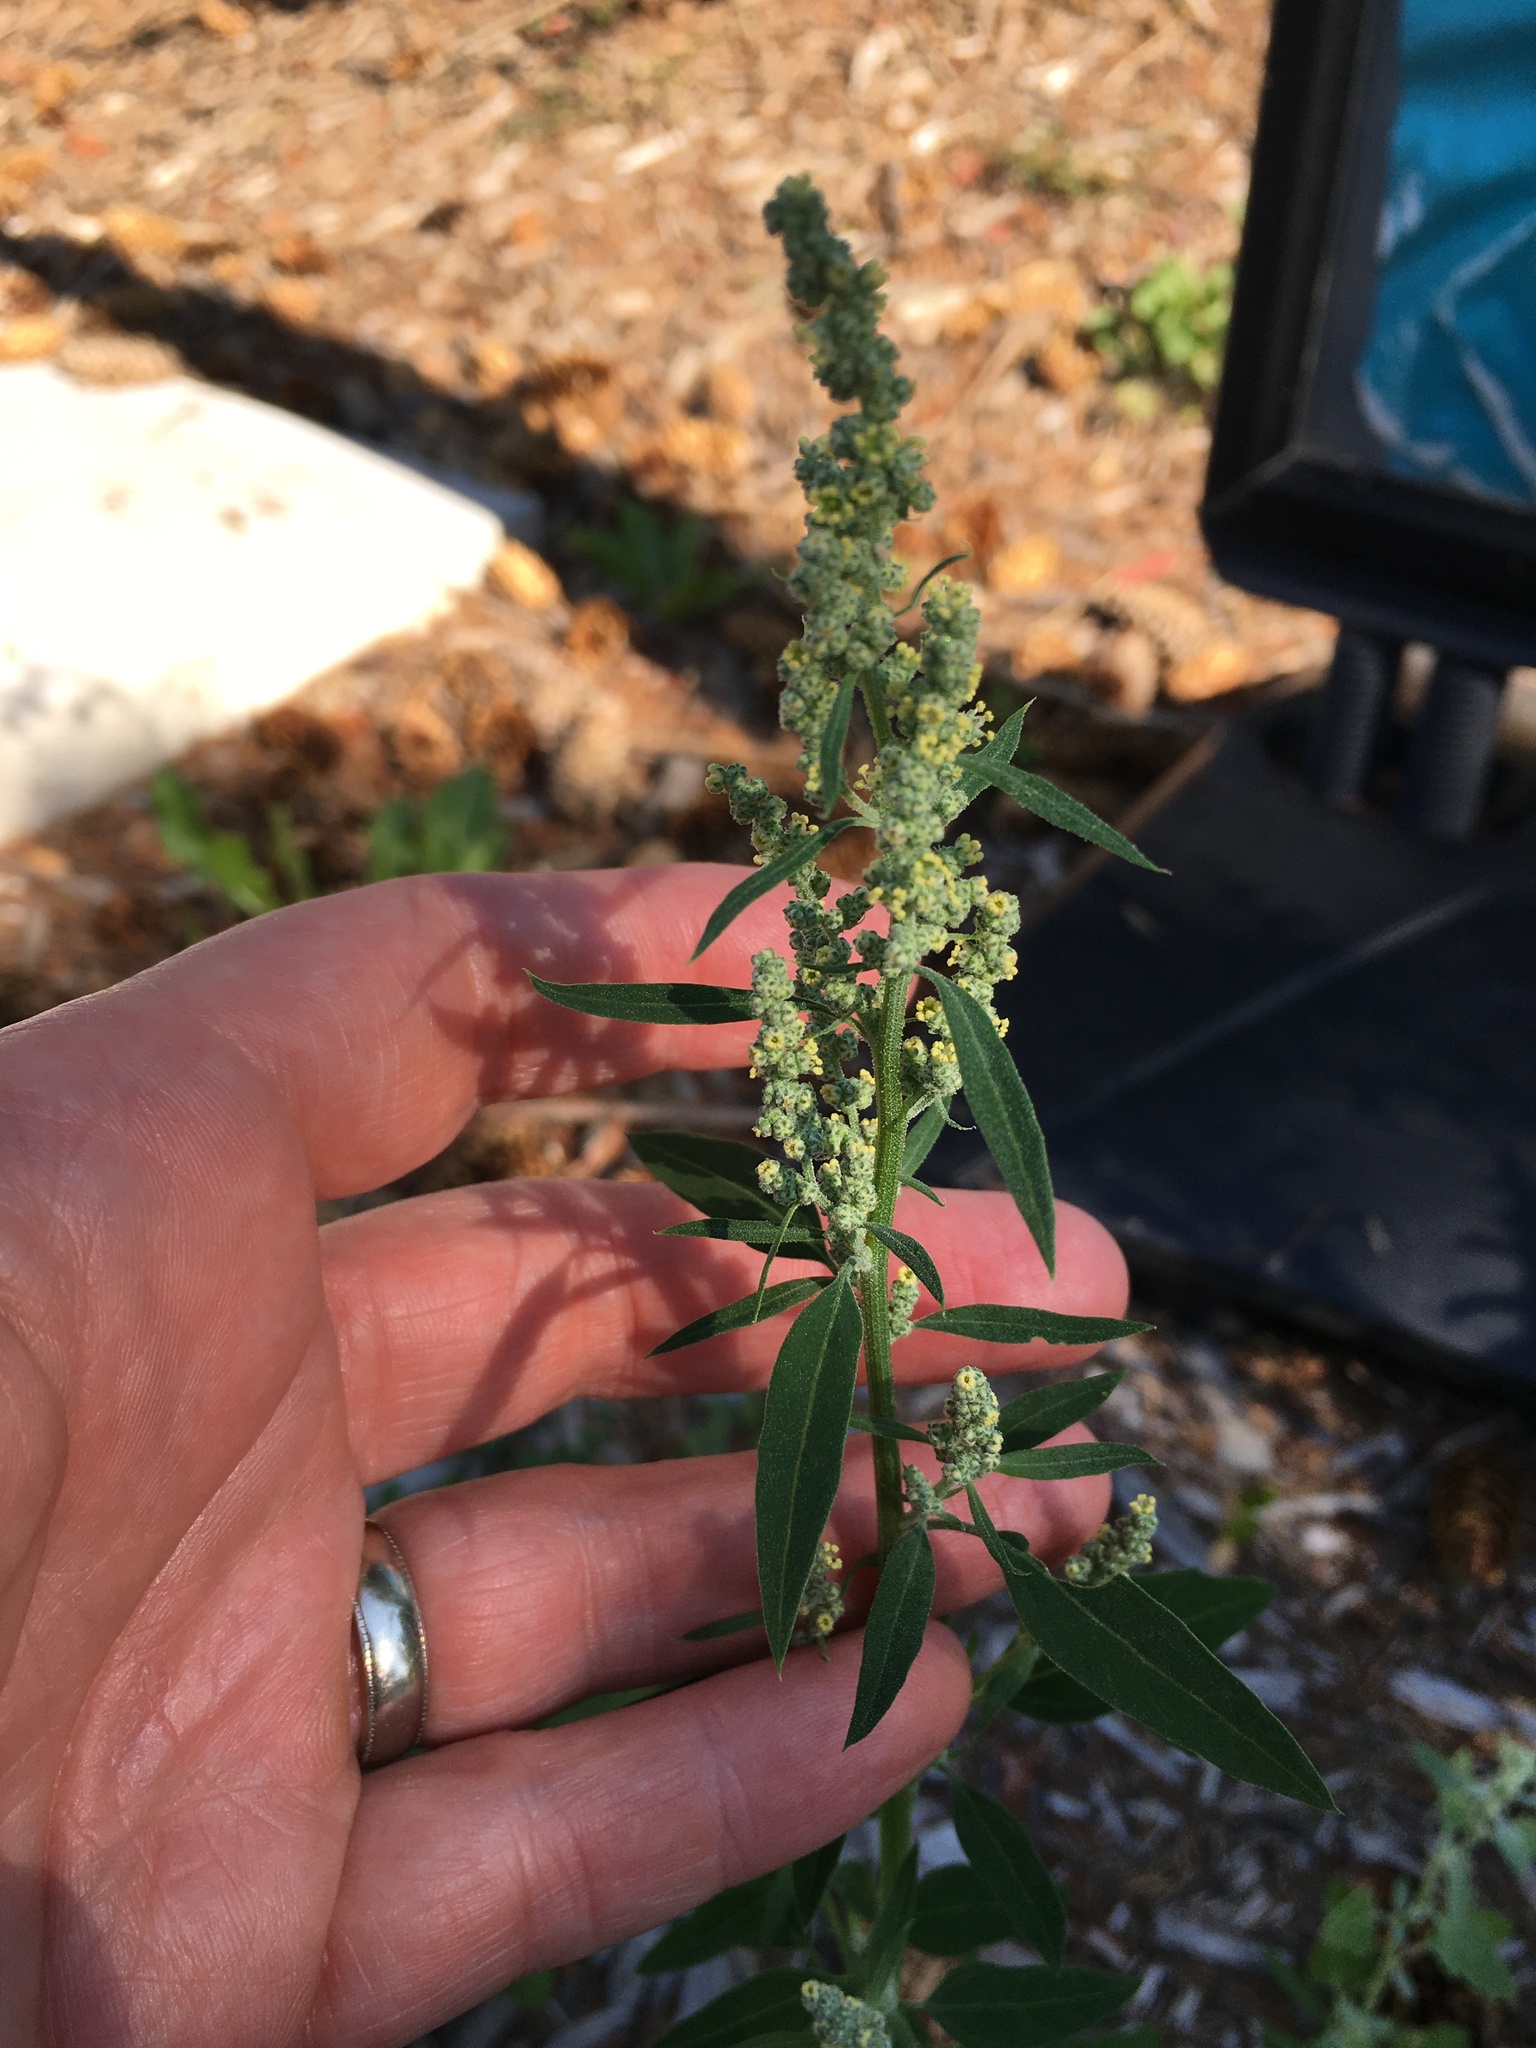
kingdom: Plantae
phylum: Tracheophyta
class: Magnoliopsida
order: Caryophyllales
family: Amaranthaceae
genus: Chenopodium
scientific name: Chenopodium album
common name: Fat-hen
